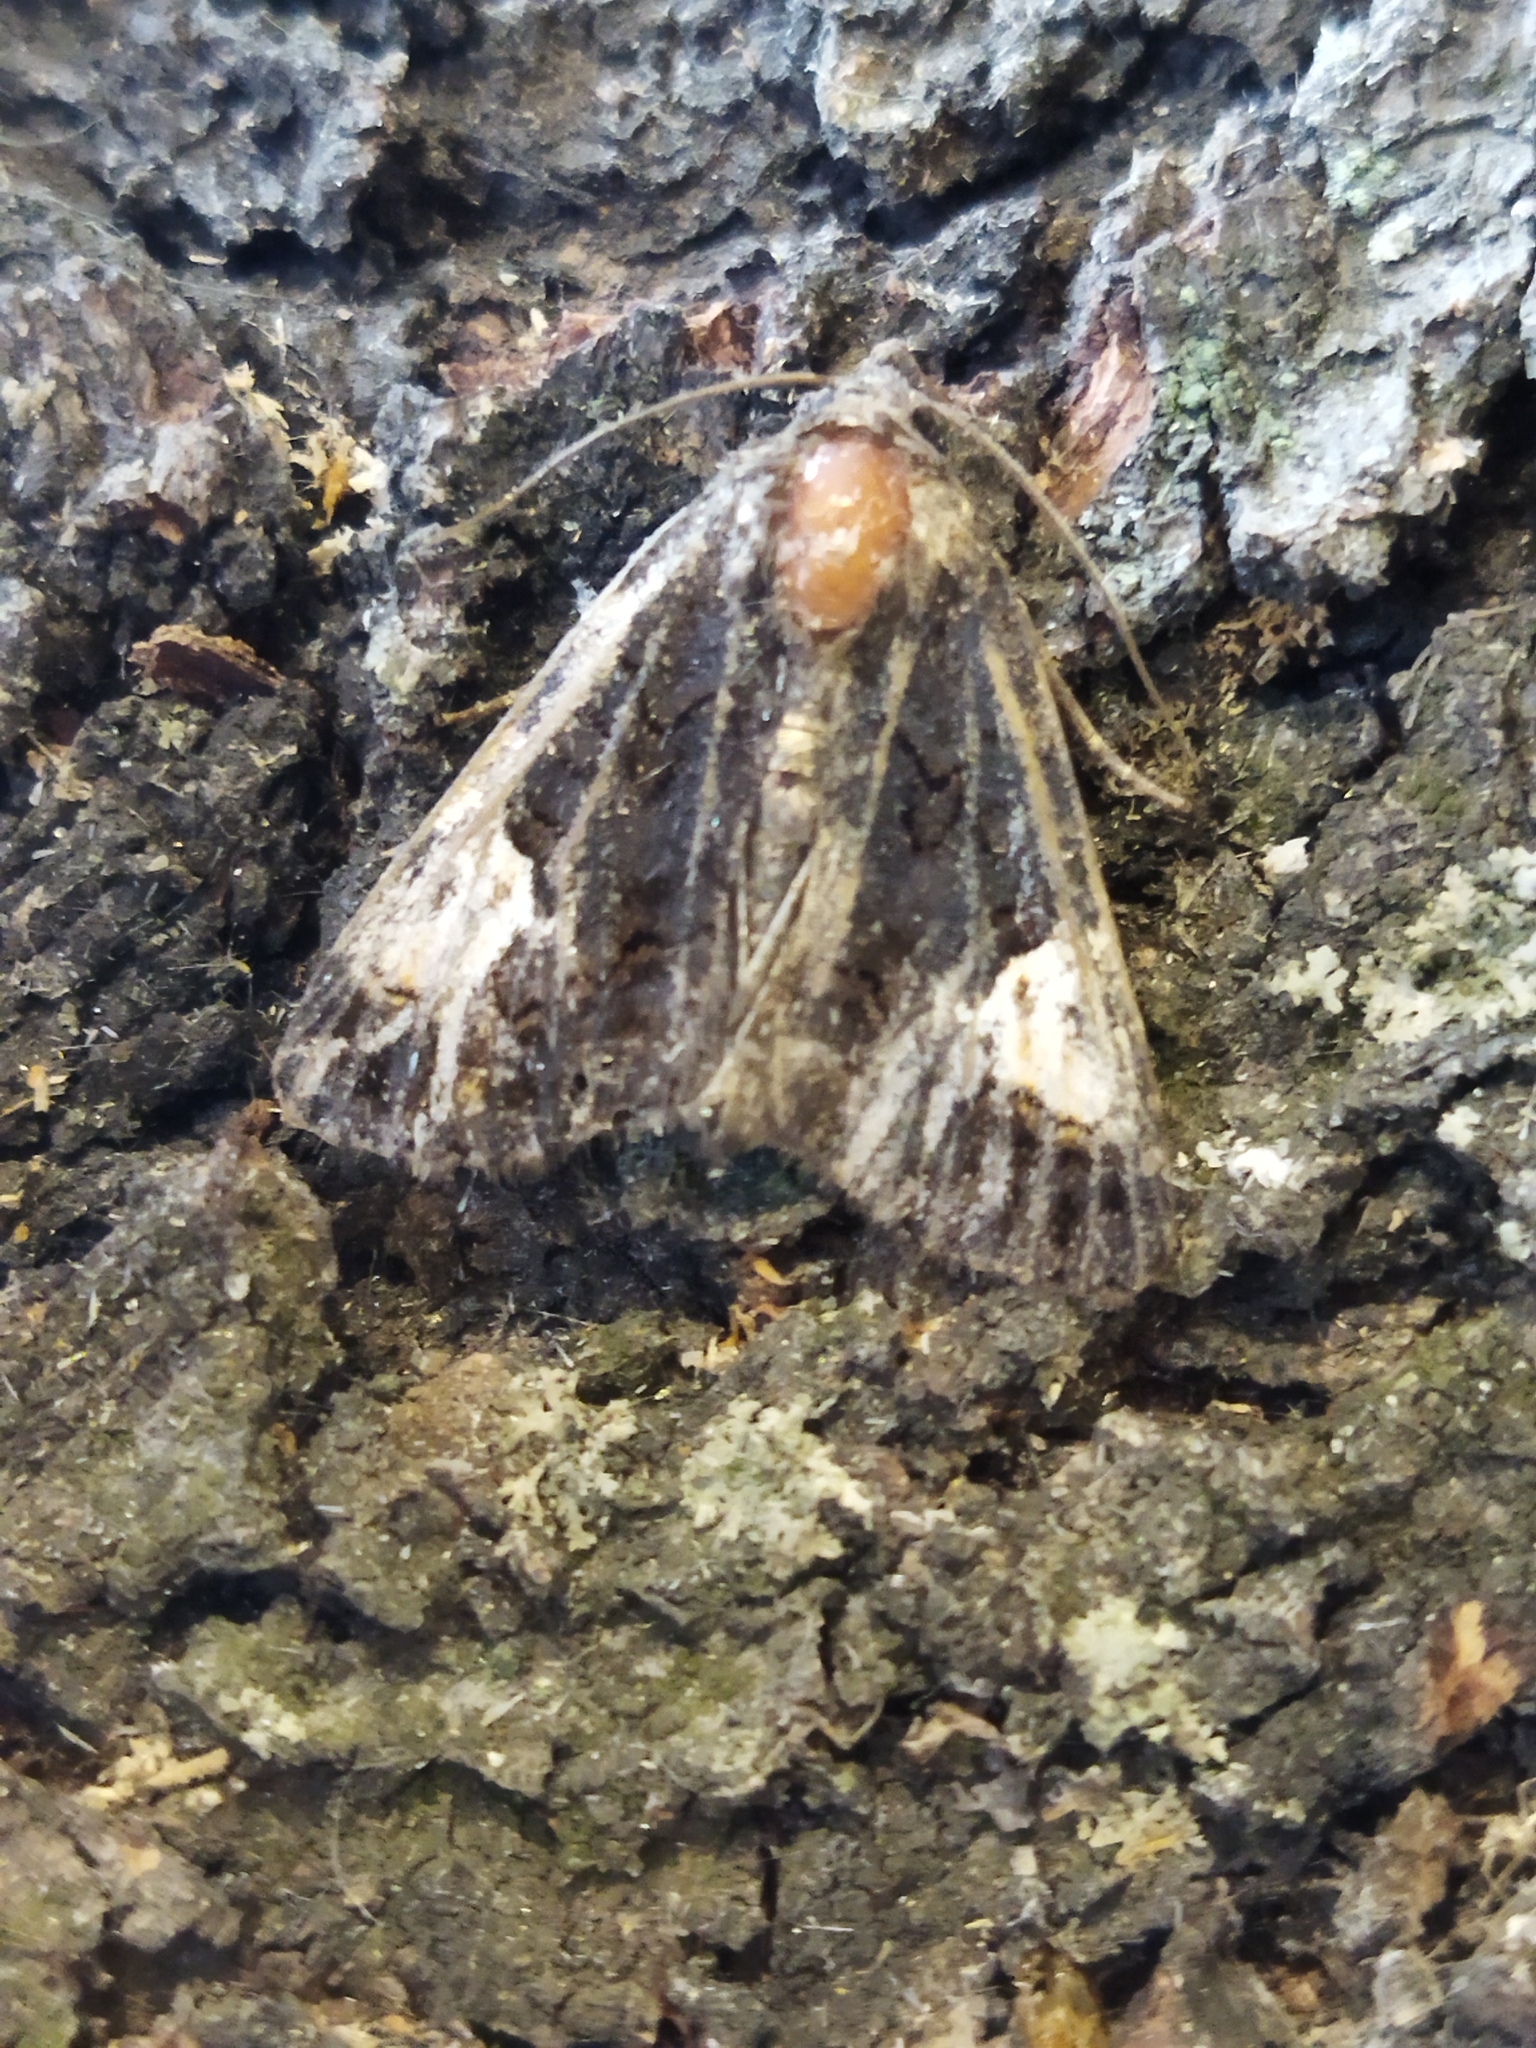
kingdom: Animalia
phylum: Arthropoda
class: Insecta
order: Lepidoptera
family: Noctuidae
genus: Aedia
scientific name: Aedia funesta
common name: The druid
